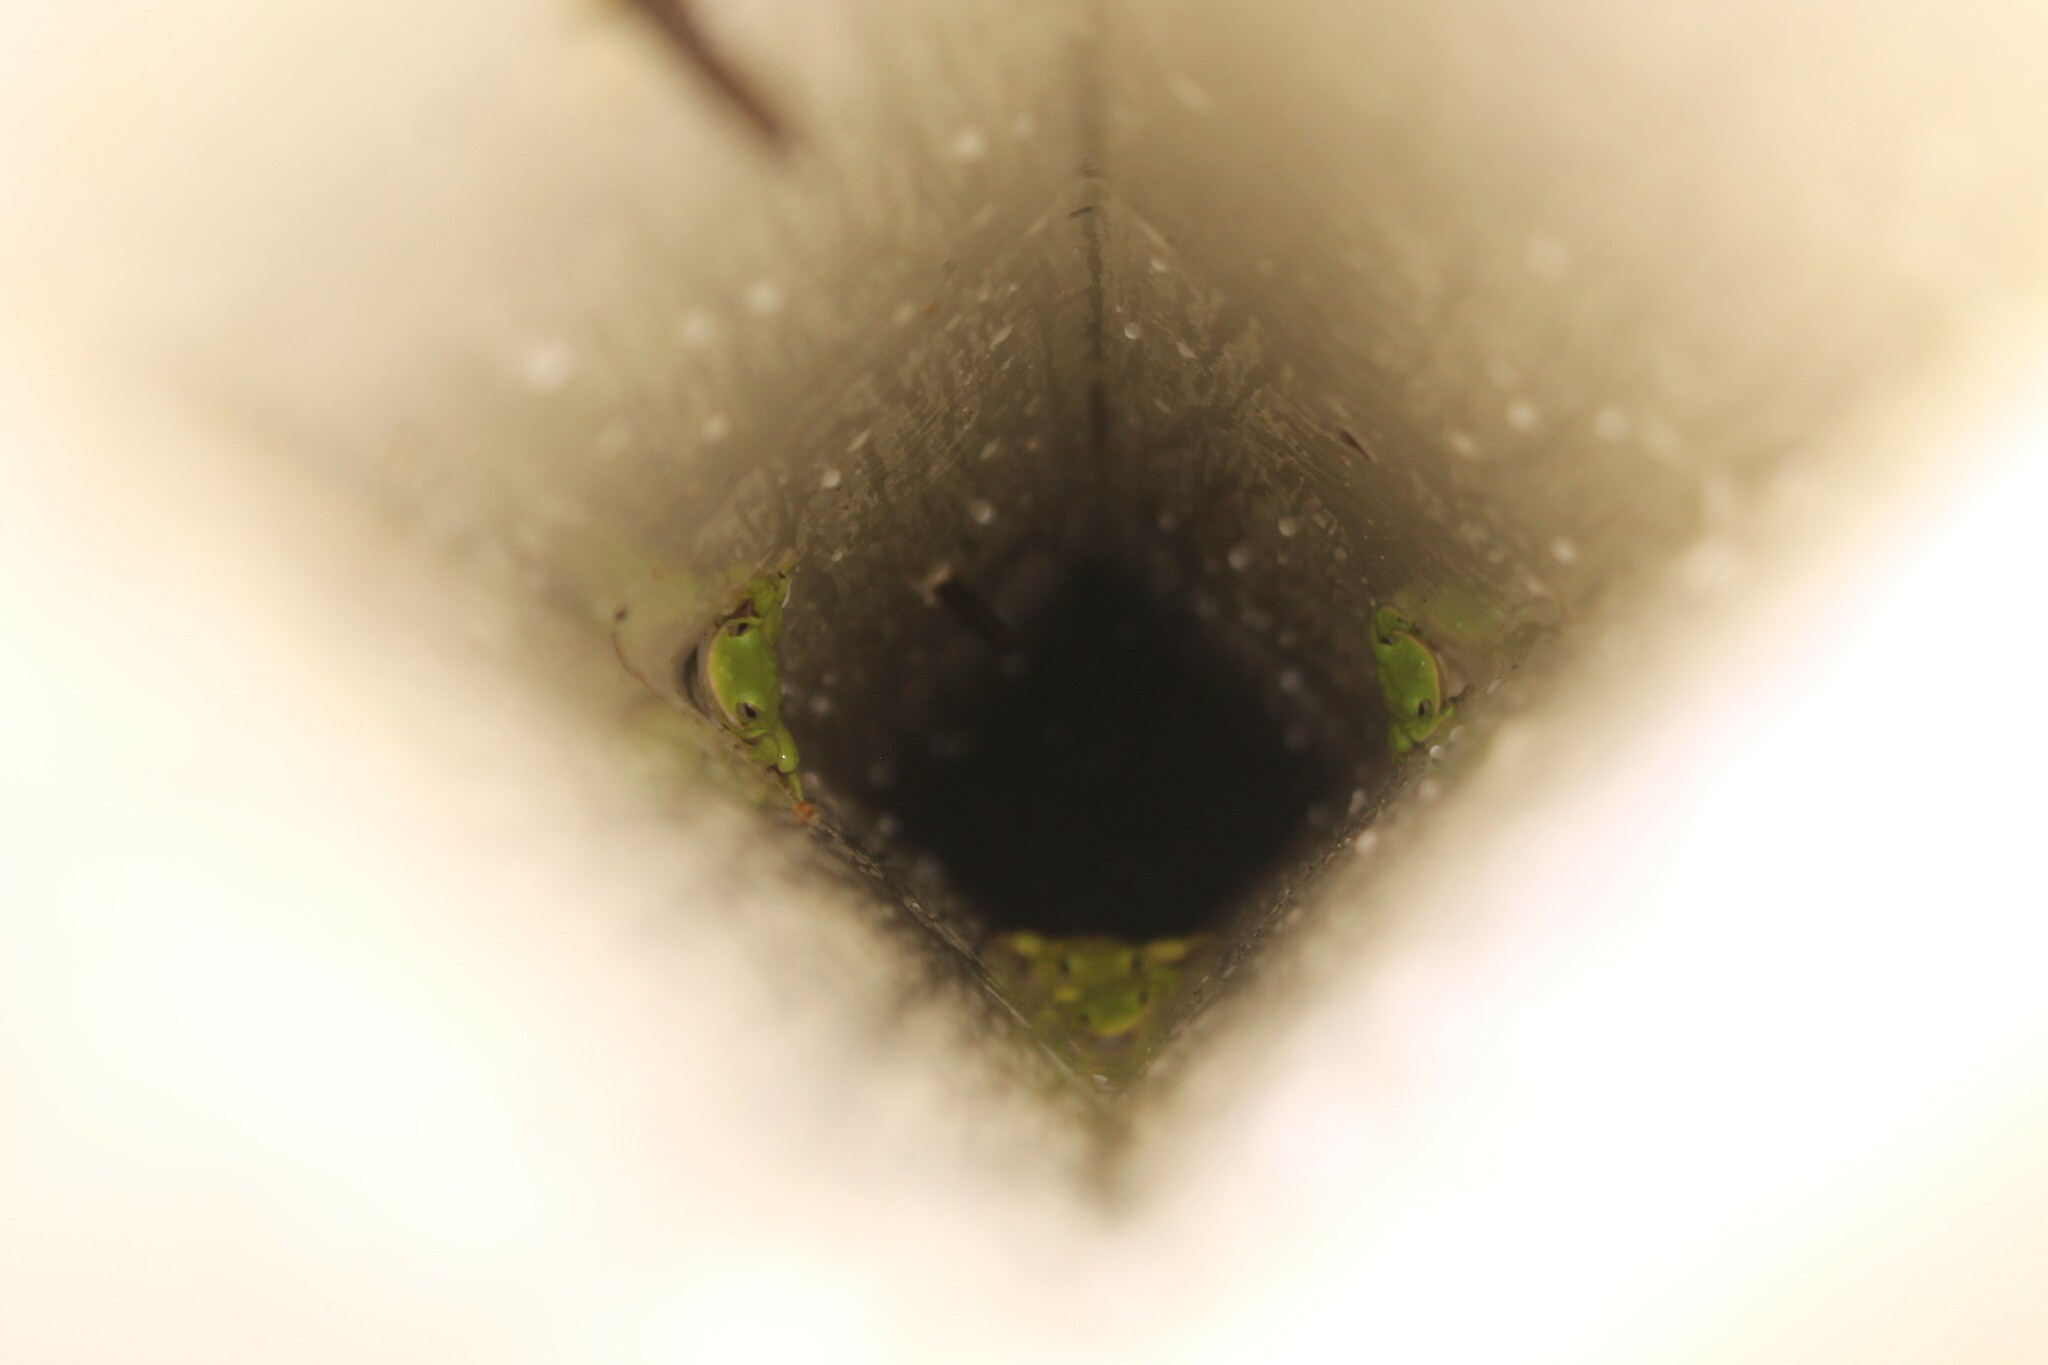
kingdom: Animalia
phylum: Chordata
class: Amphibia
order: Anura
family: Hylidae
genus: Dryophytes
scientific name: Dryophytes cinereus
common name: Green treefrog
